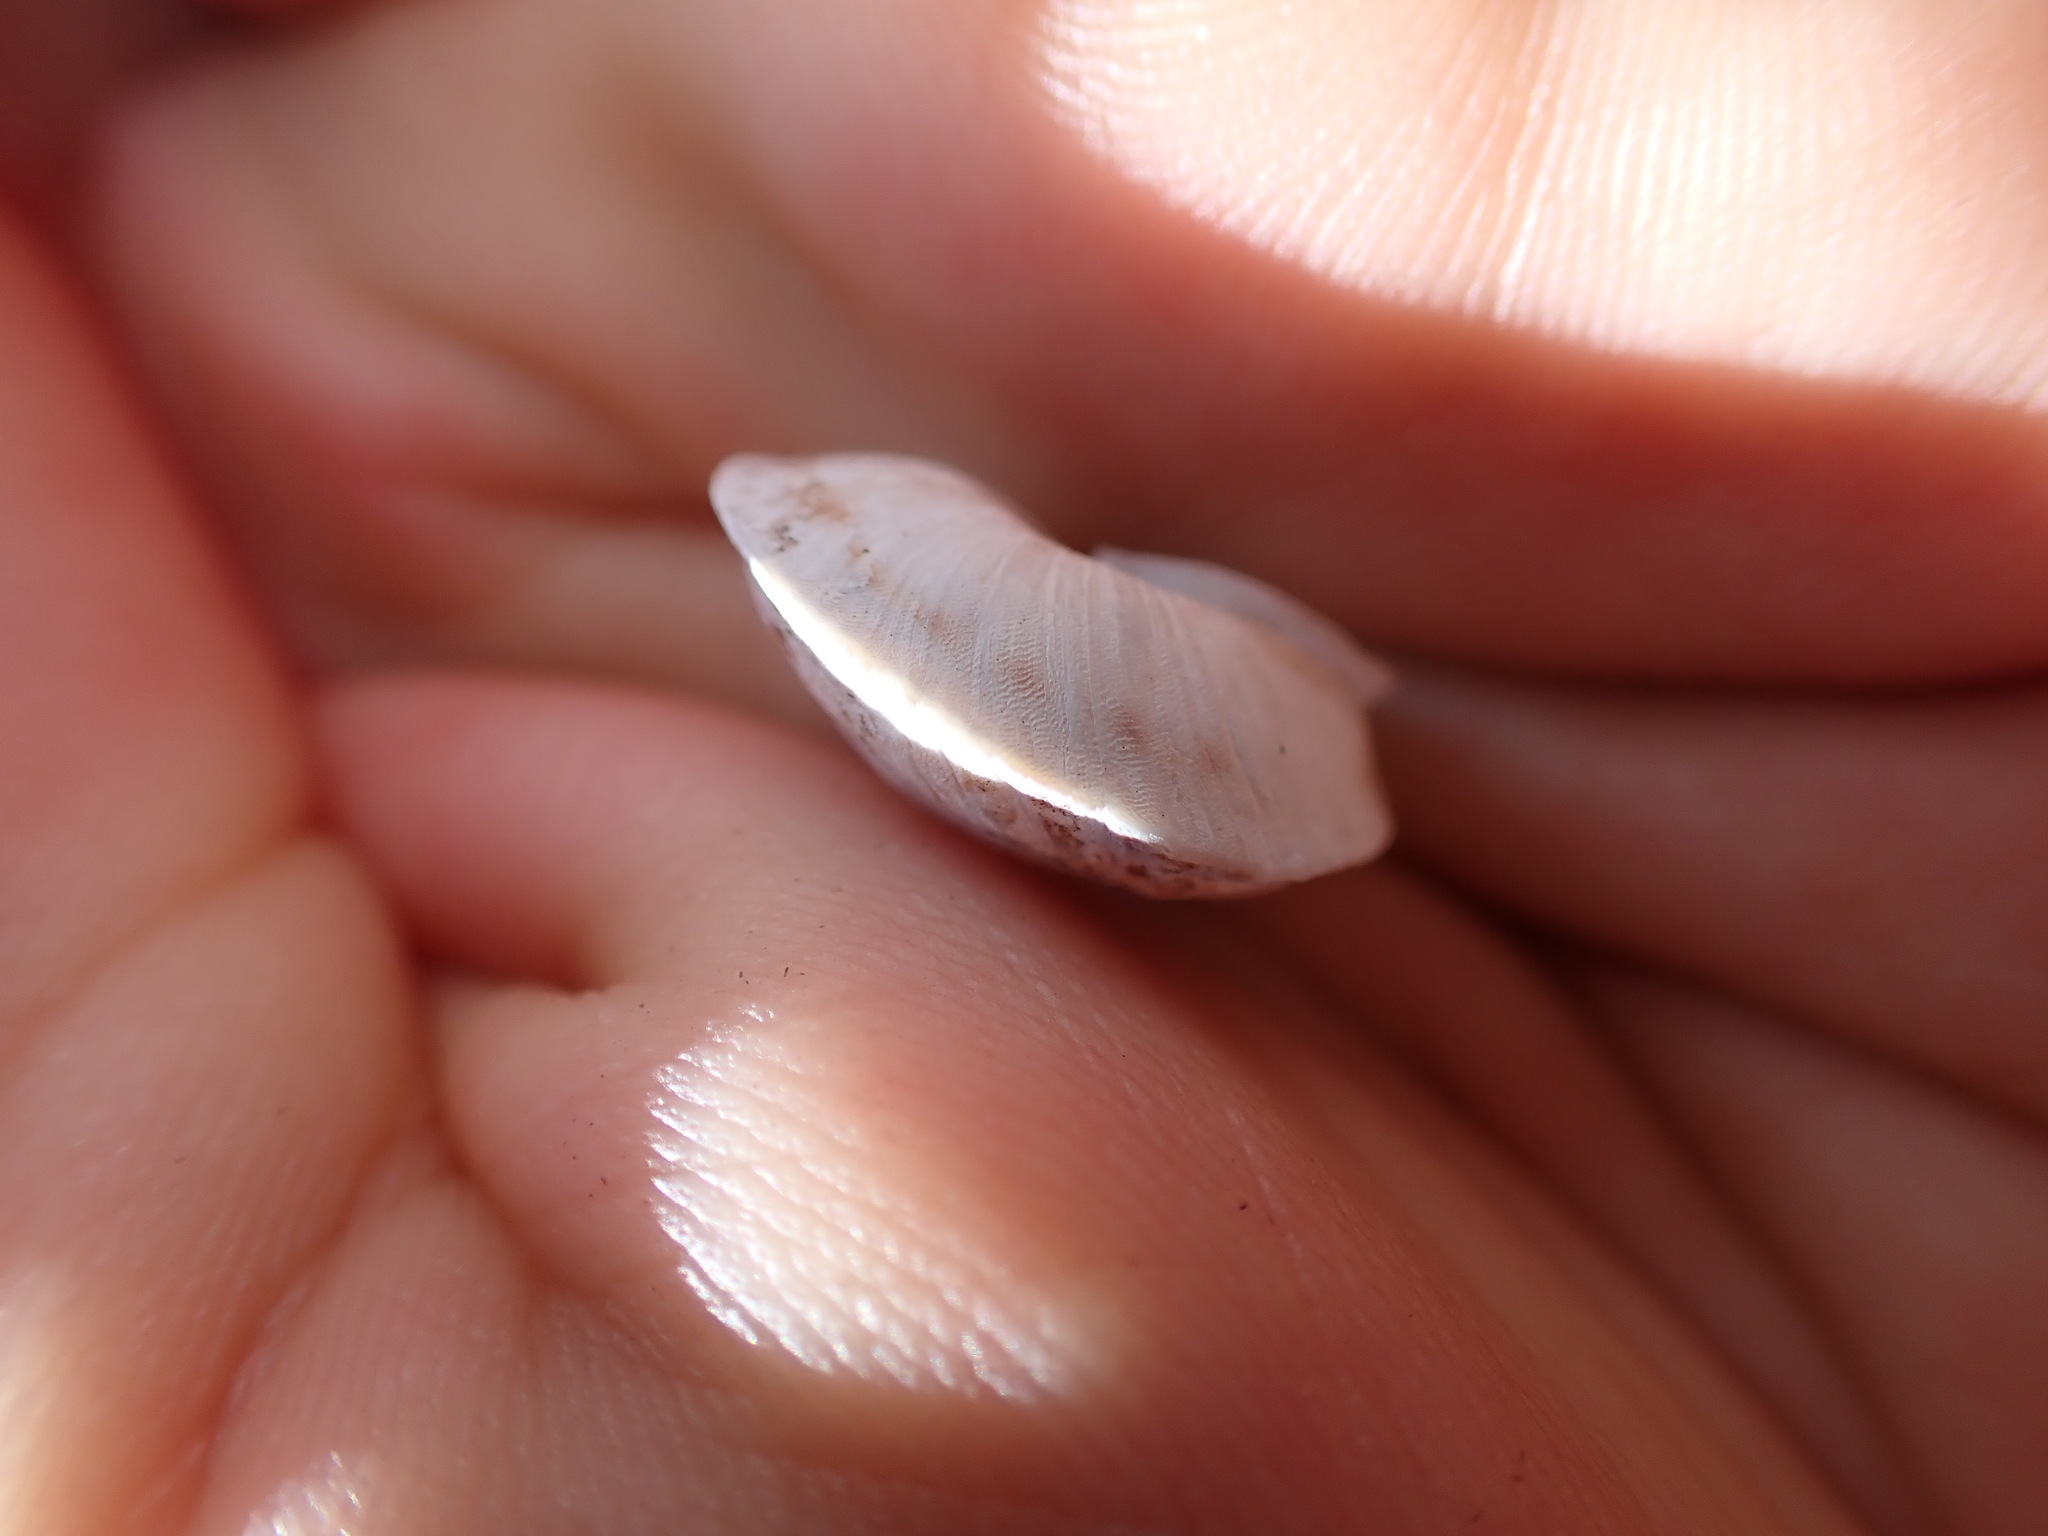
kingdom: Animalia
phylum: Mollusca
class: Gastropoda
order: Stylommatophora
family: Helicidae
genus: Helicigona
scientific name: Helicigona lapicida
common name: Lapidary snail
